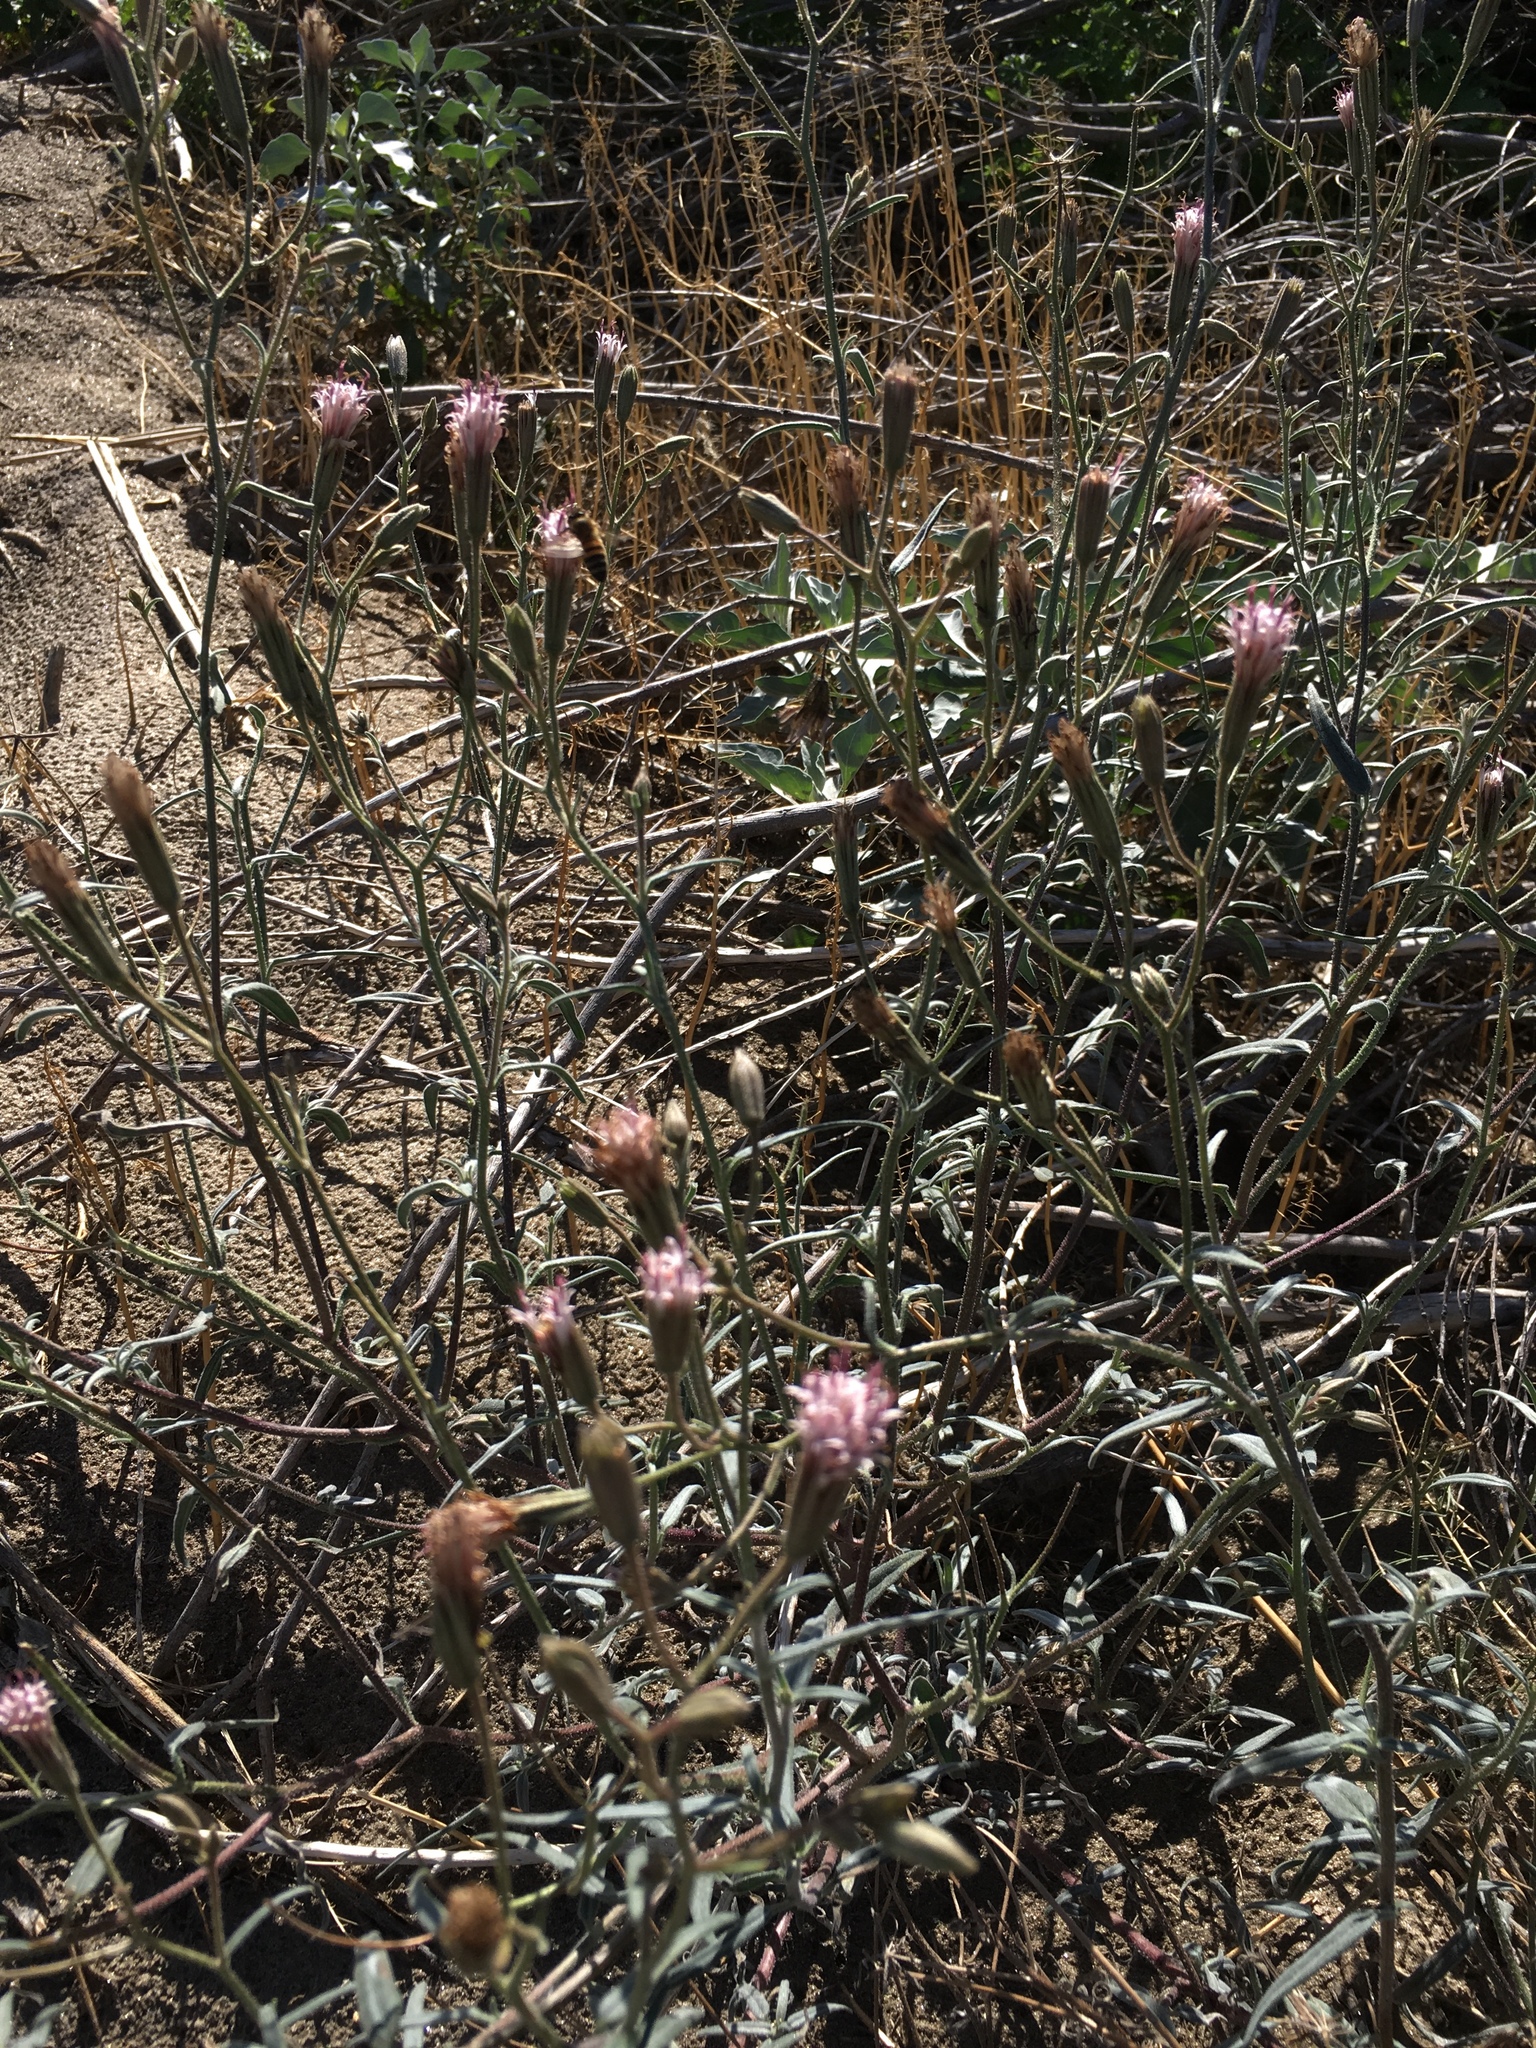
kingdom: Plantae
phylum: Tracheophyta
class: Magnoliopsida
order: Asterales
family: Asteraceae
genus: Palafoxia
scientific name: Palafoxia arida
